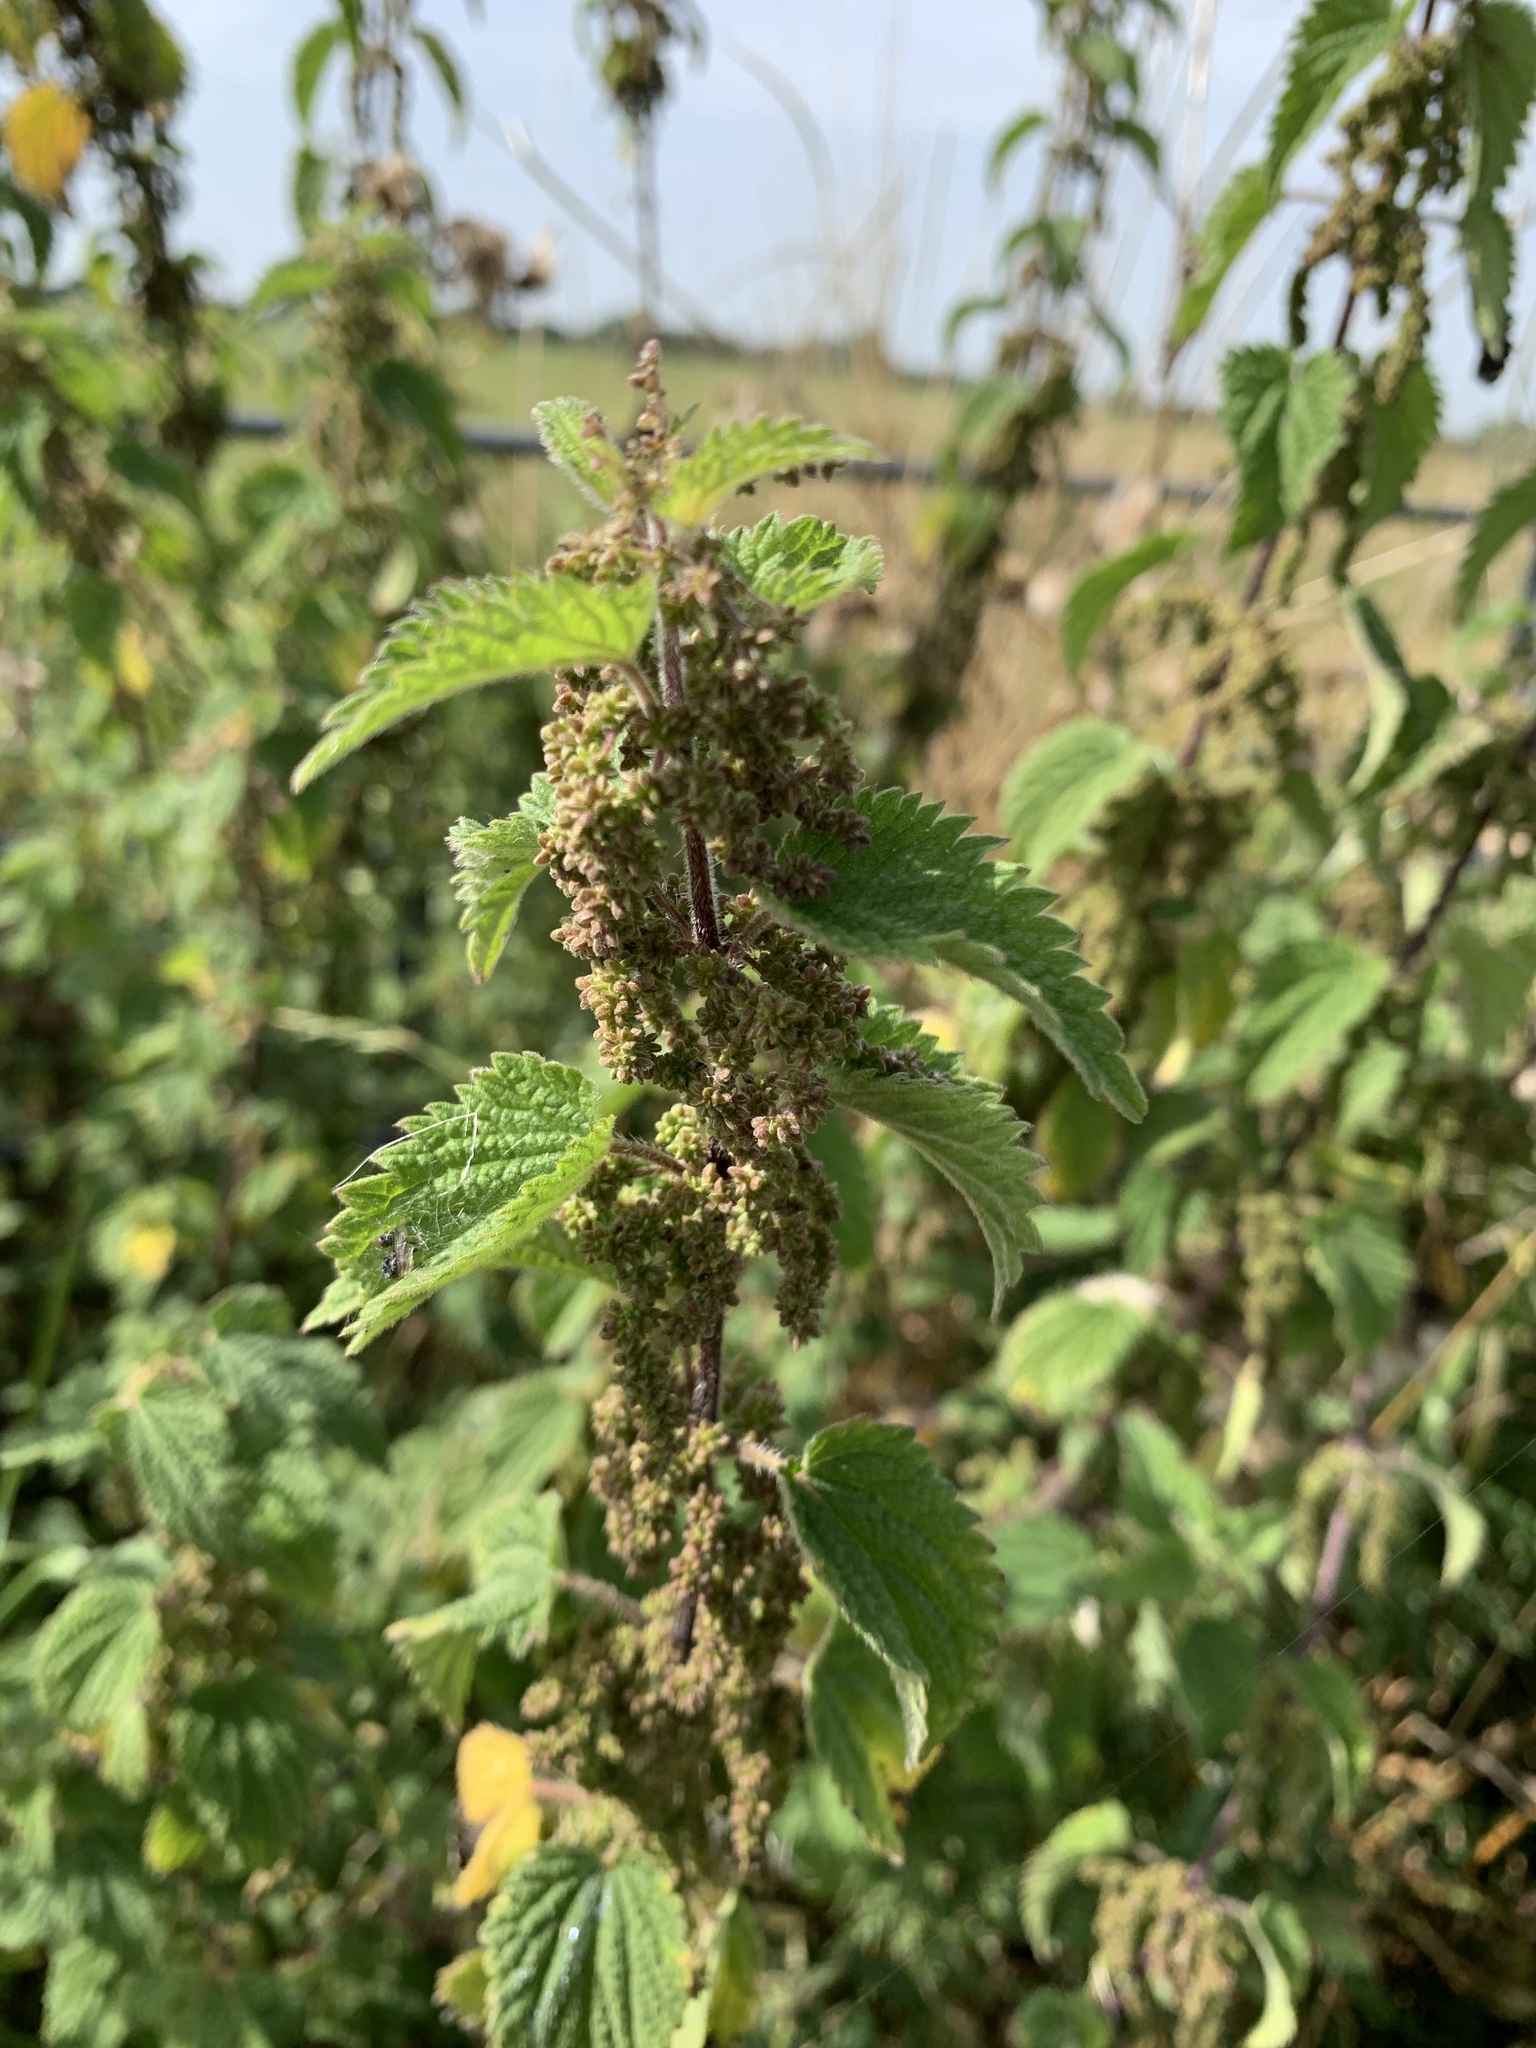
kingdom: Plantae
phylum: Tracheophyta
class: Magnoliopsida
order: Rosales
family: Urticaceae
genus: Urtica
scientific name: Urtica dioica
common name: Common nettle
